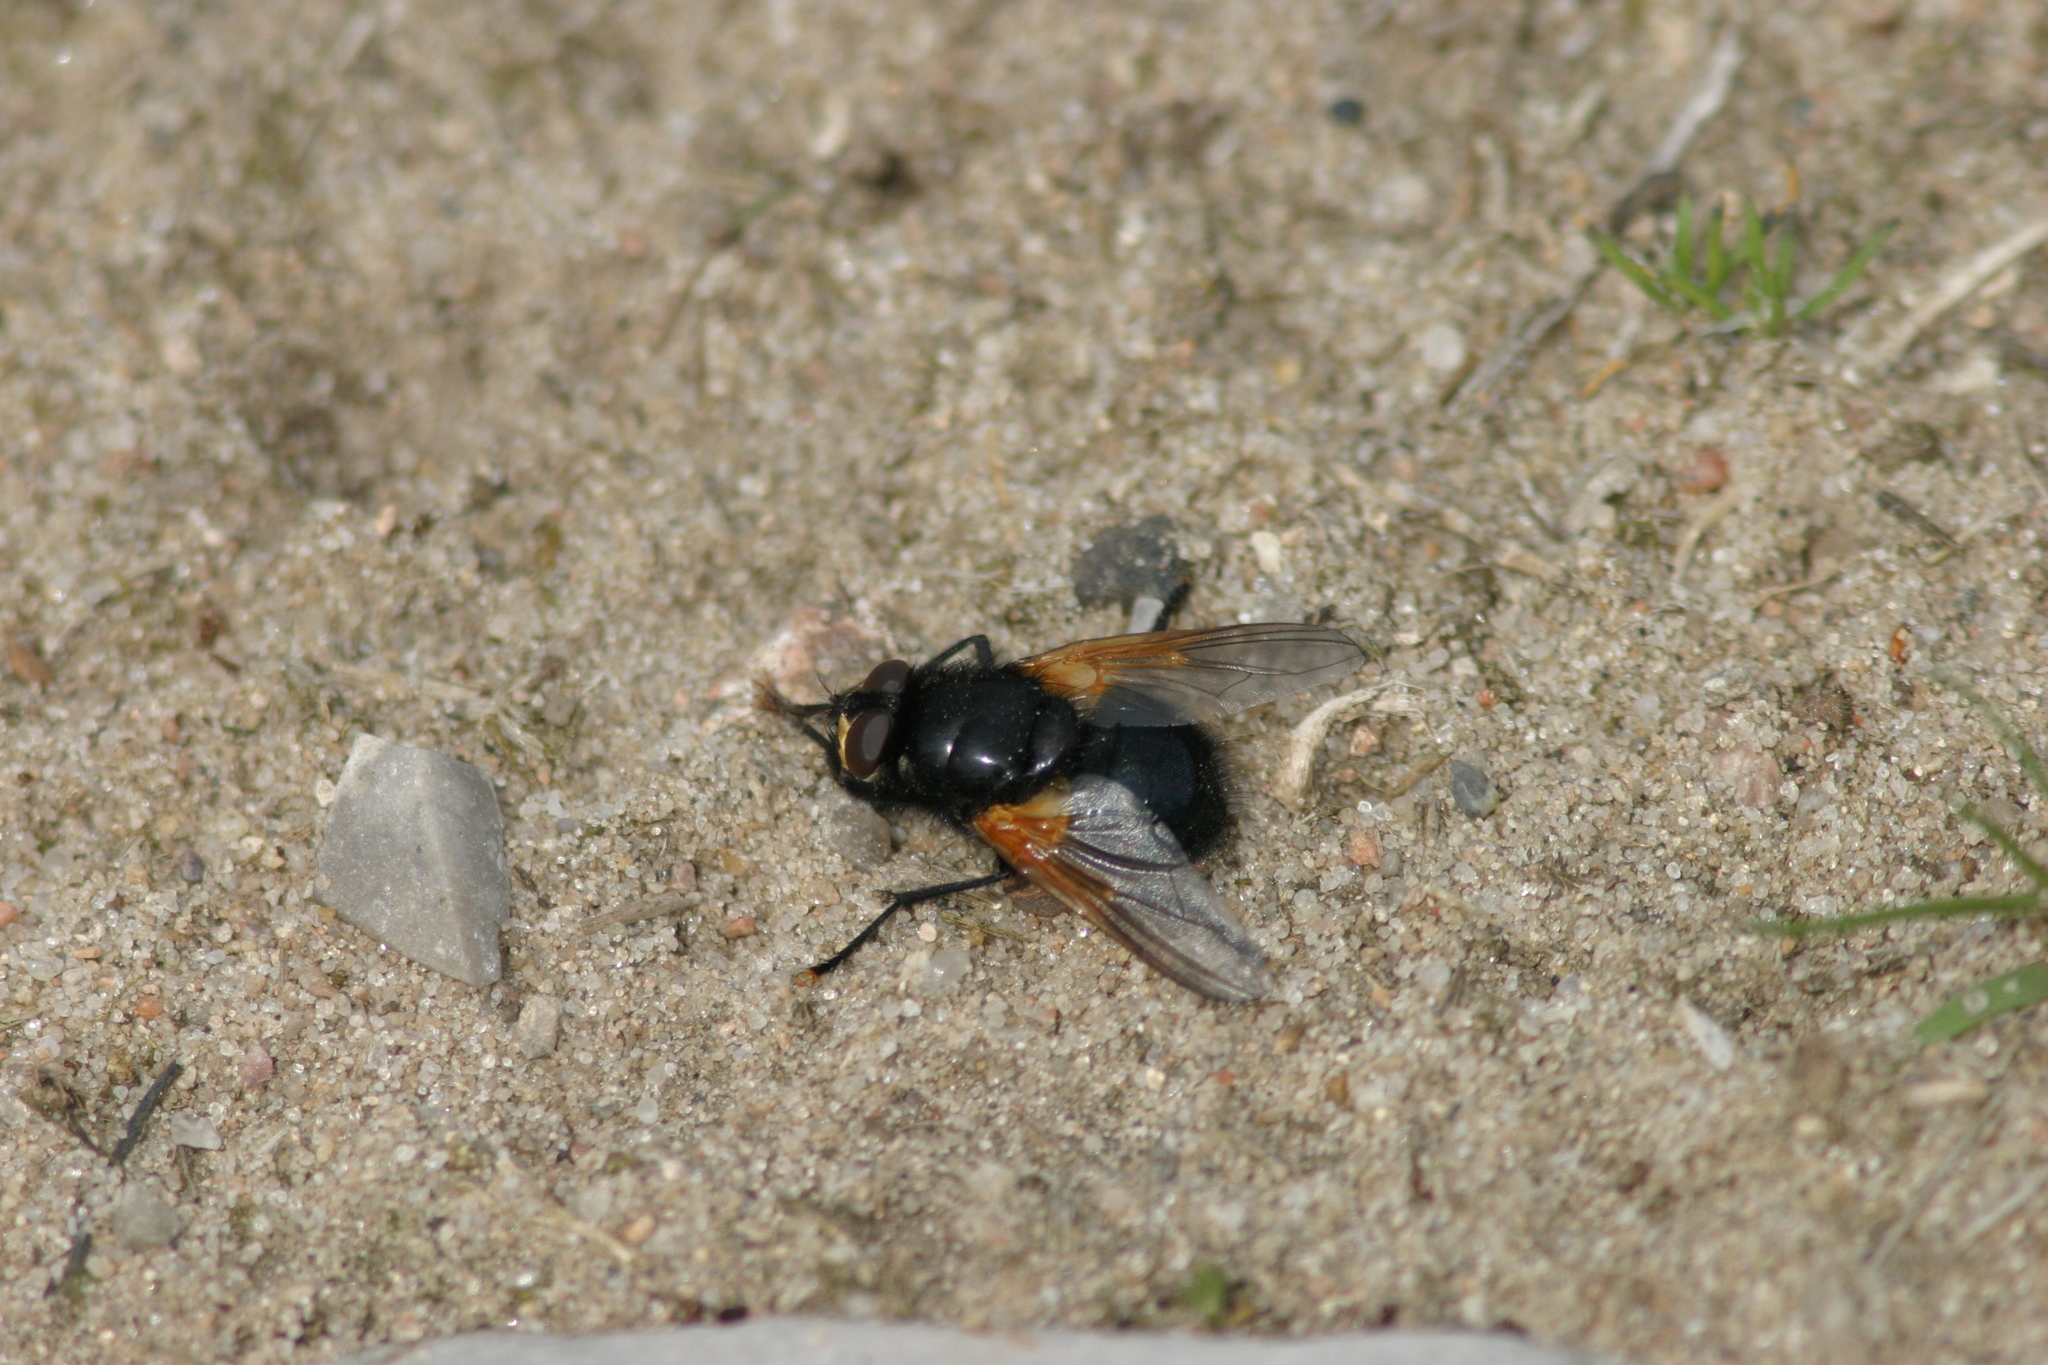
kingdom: Animalia
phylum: Arthropoda
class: Insecta
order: Diptera
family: Muscidae
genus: Mesembrina
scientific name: Mesembrina meridiana
